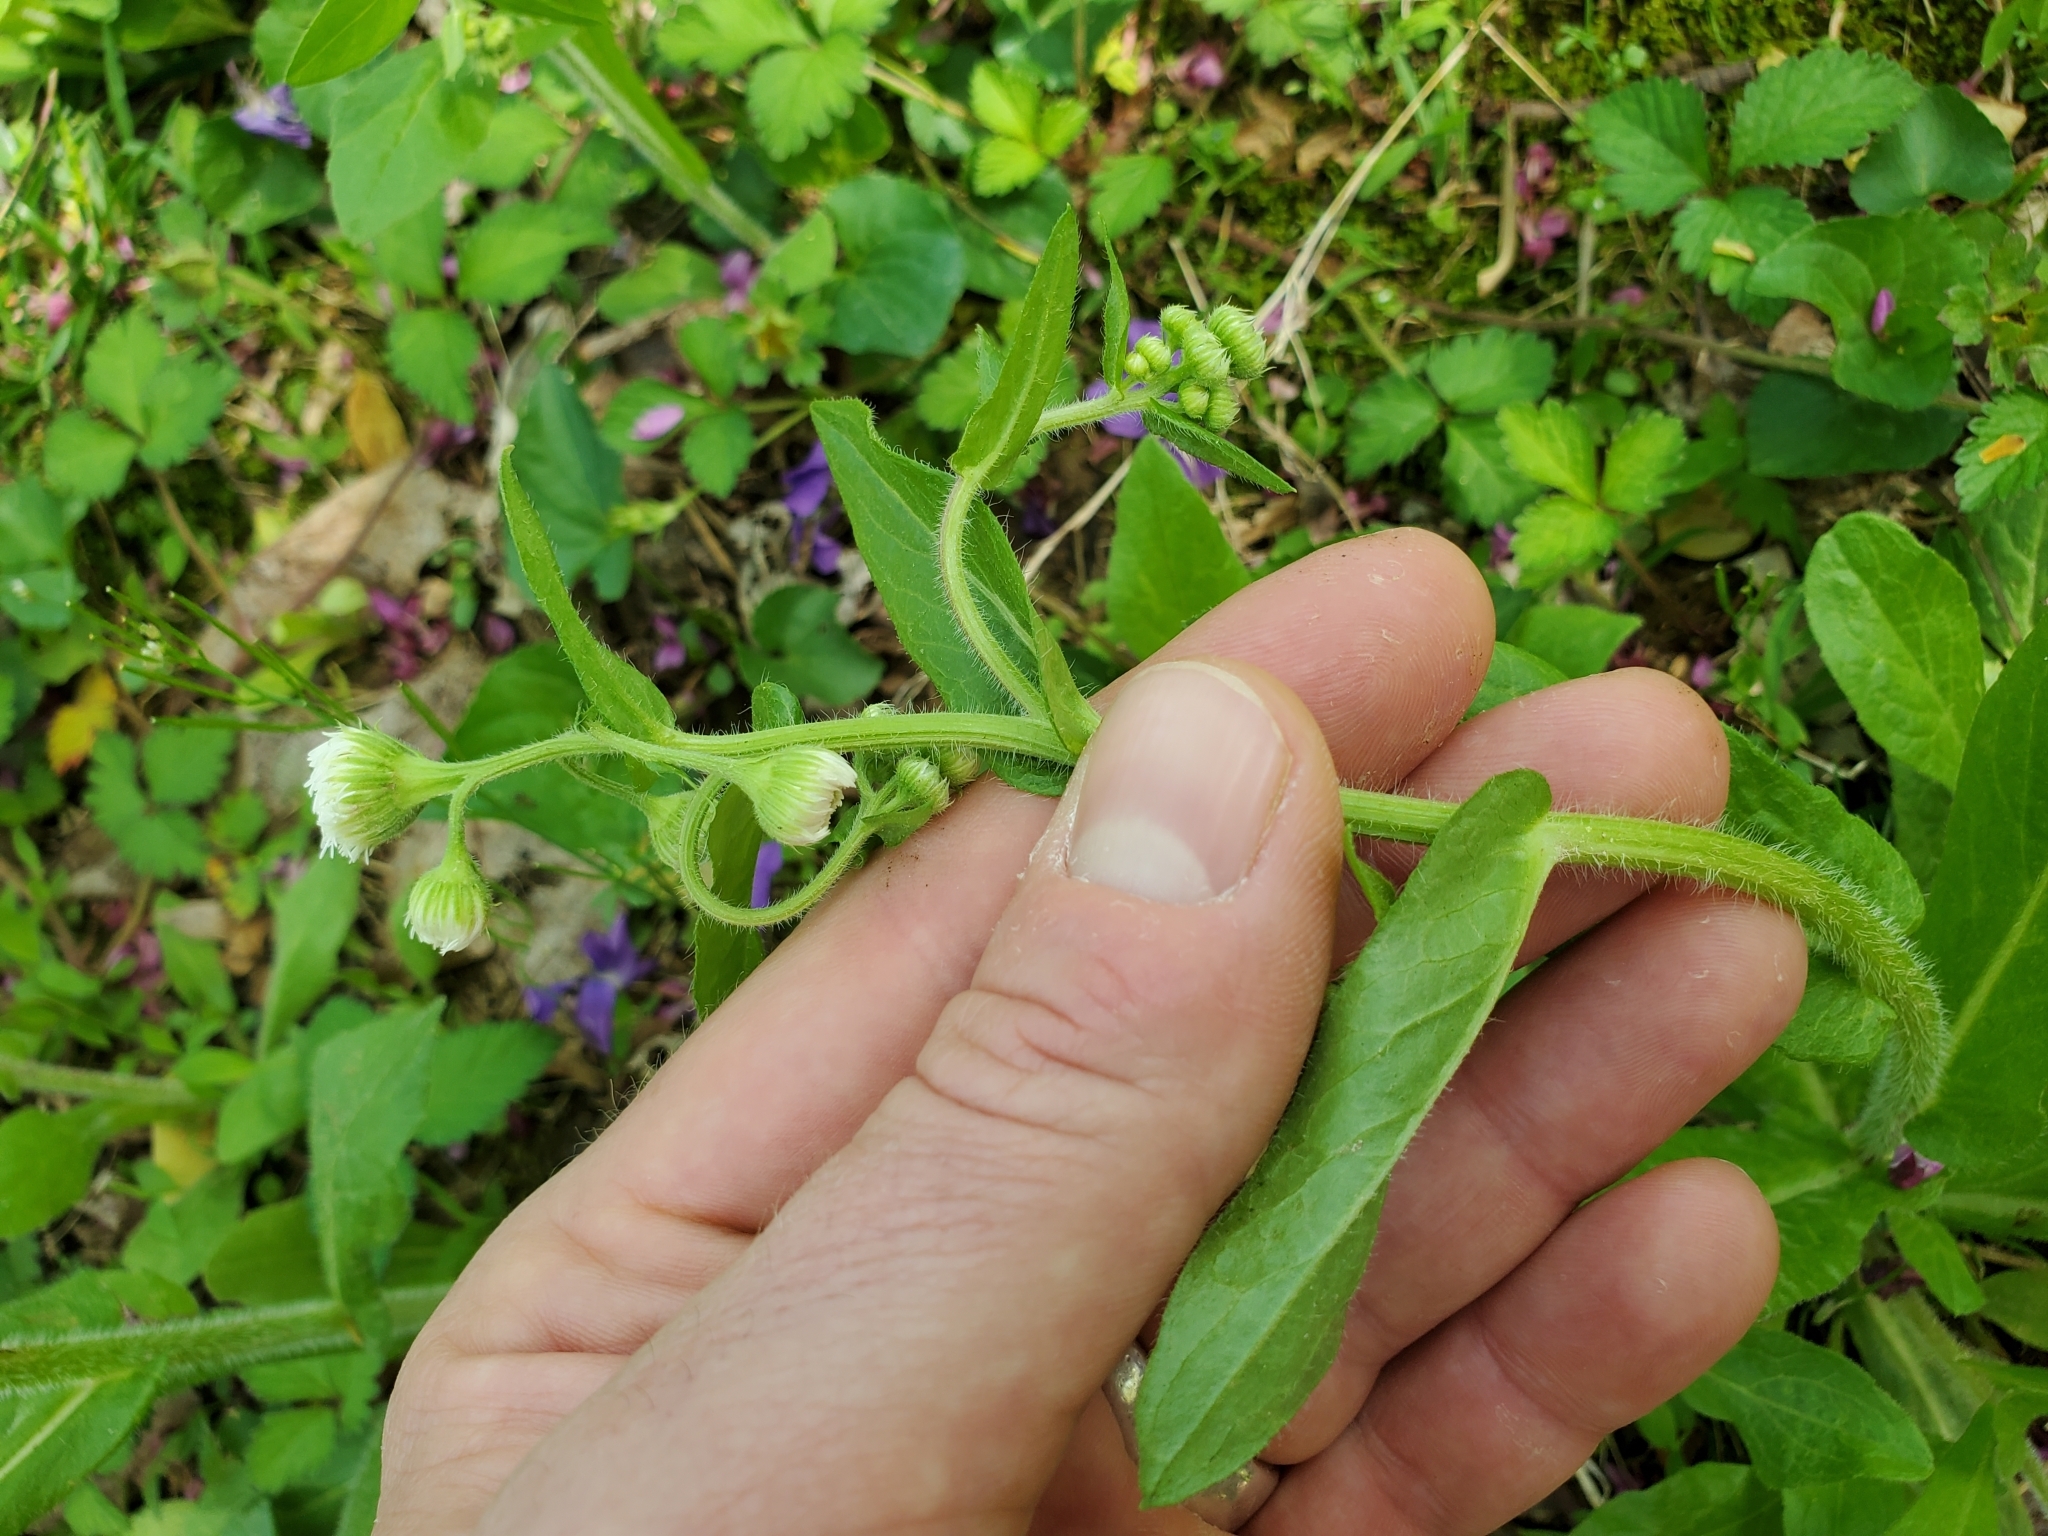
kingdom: Plantae
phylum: Tracheophyta
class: Magnoliopsida
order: Asterales
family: Asteraceae
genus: Erigeron
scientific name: Erigeron philadelphicus
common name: Robin's-plantain
